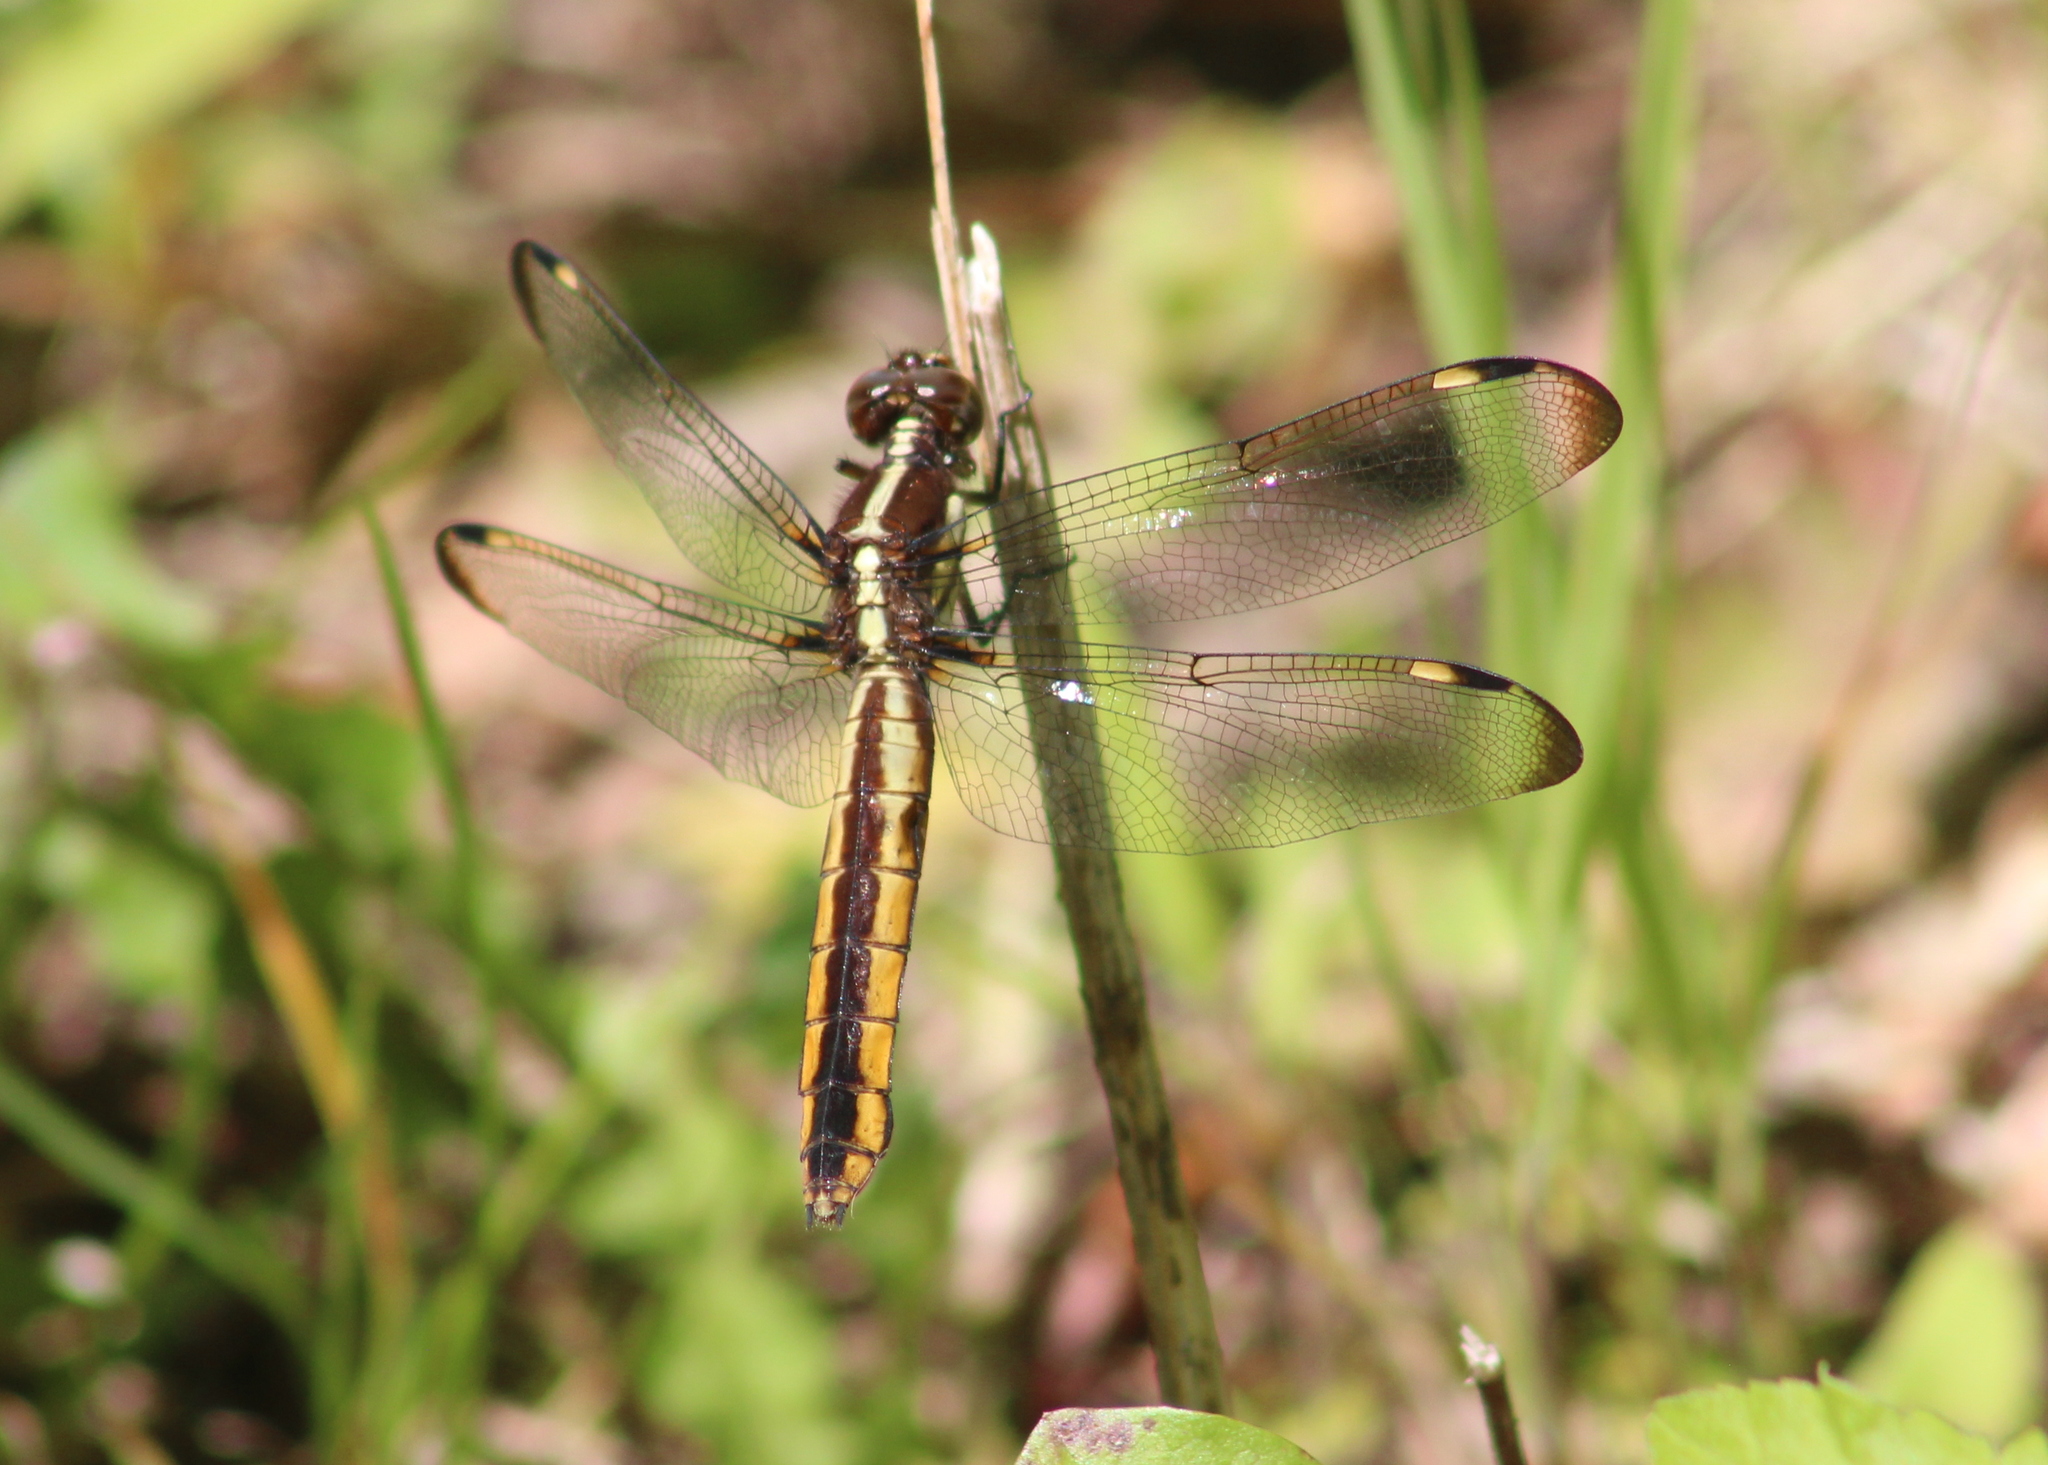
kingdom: Animalia
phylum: Arthropoda
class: Insecta
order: Odonata
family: Libellulidae
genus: Libellula
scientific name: Libellula cyanea
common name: Spangled skimmer
